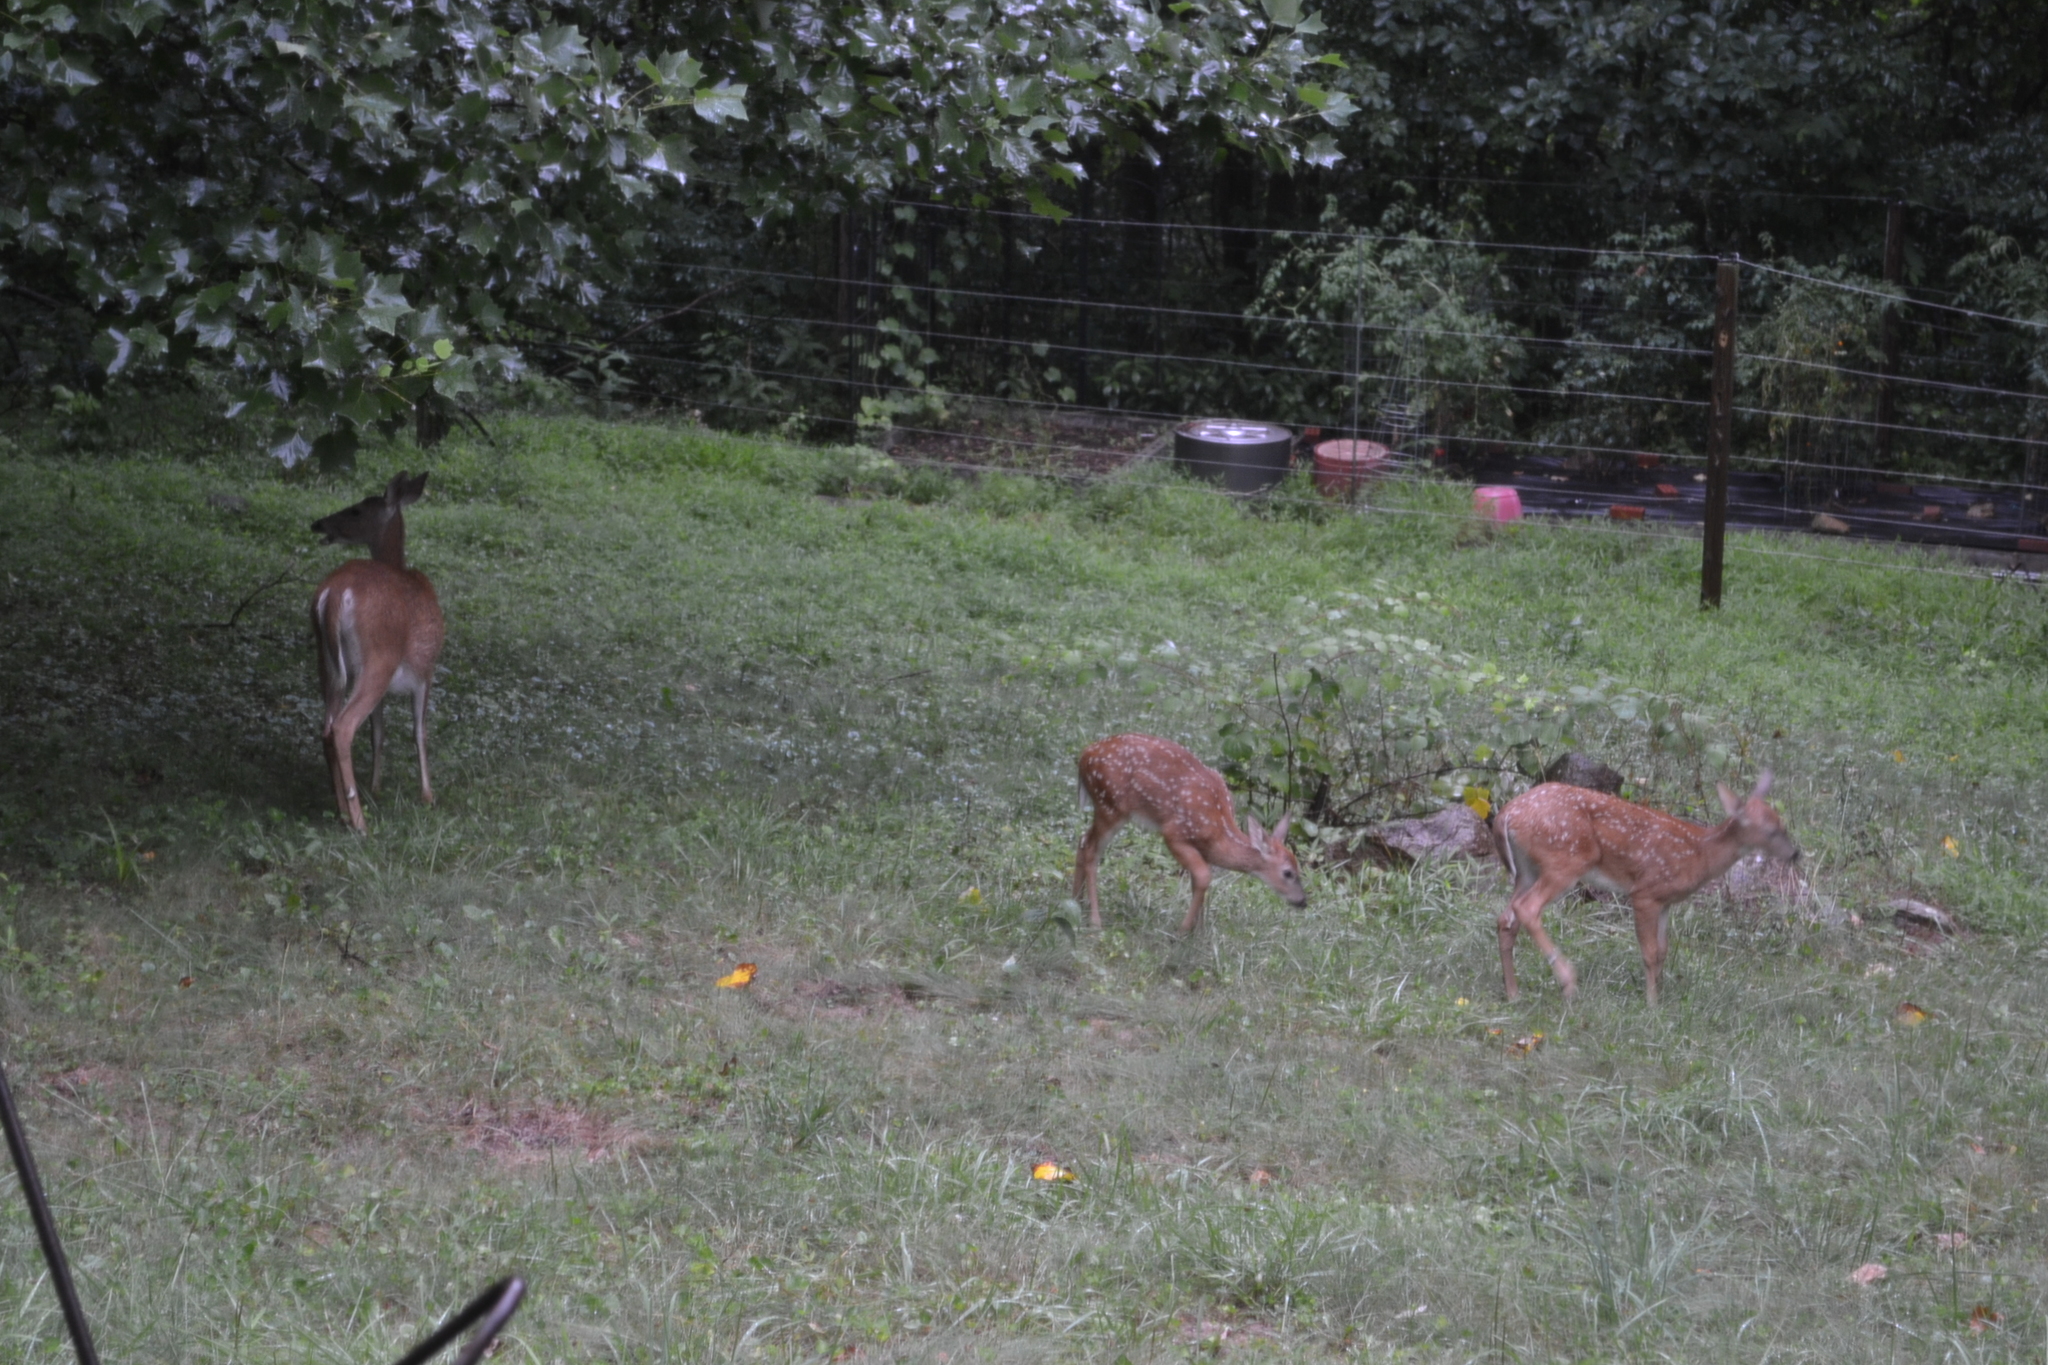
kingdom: Animalia
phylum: Chordata
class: Mammalia
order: Artiodactyla
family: Cervidae
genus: Odocoileus
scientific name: Odocoileus virginianus
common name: White-tailed deer
